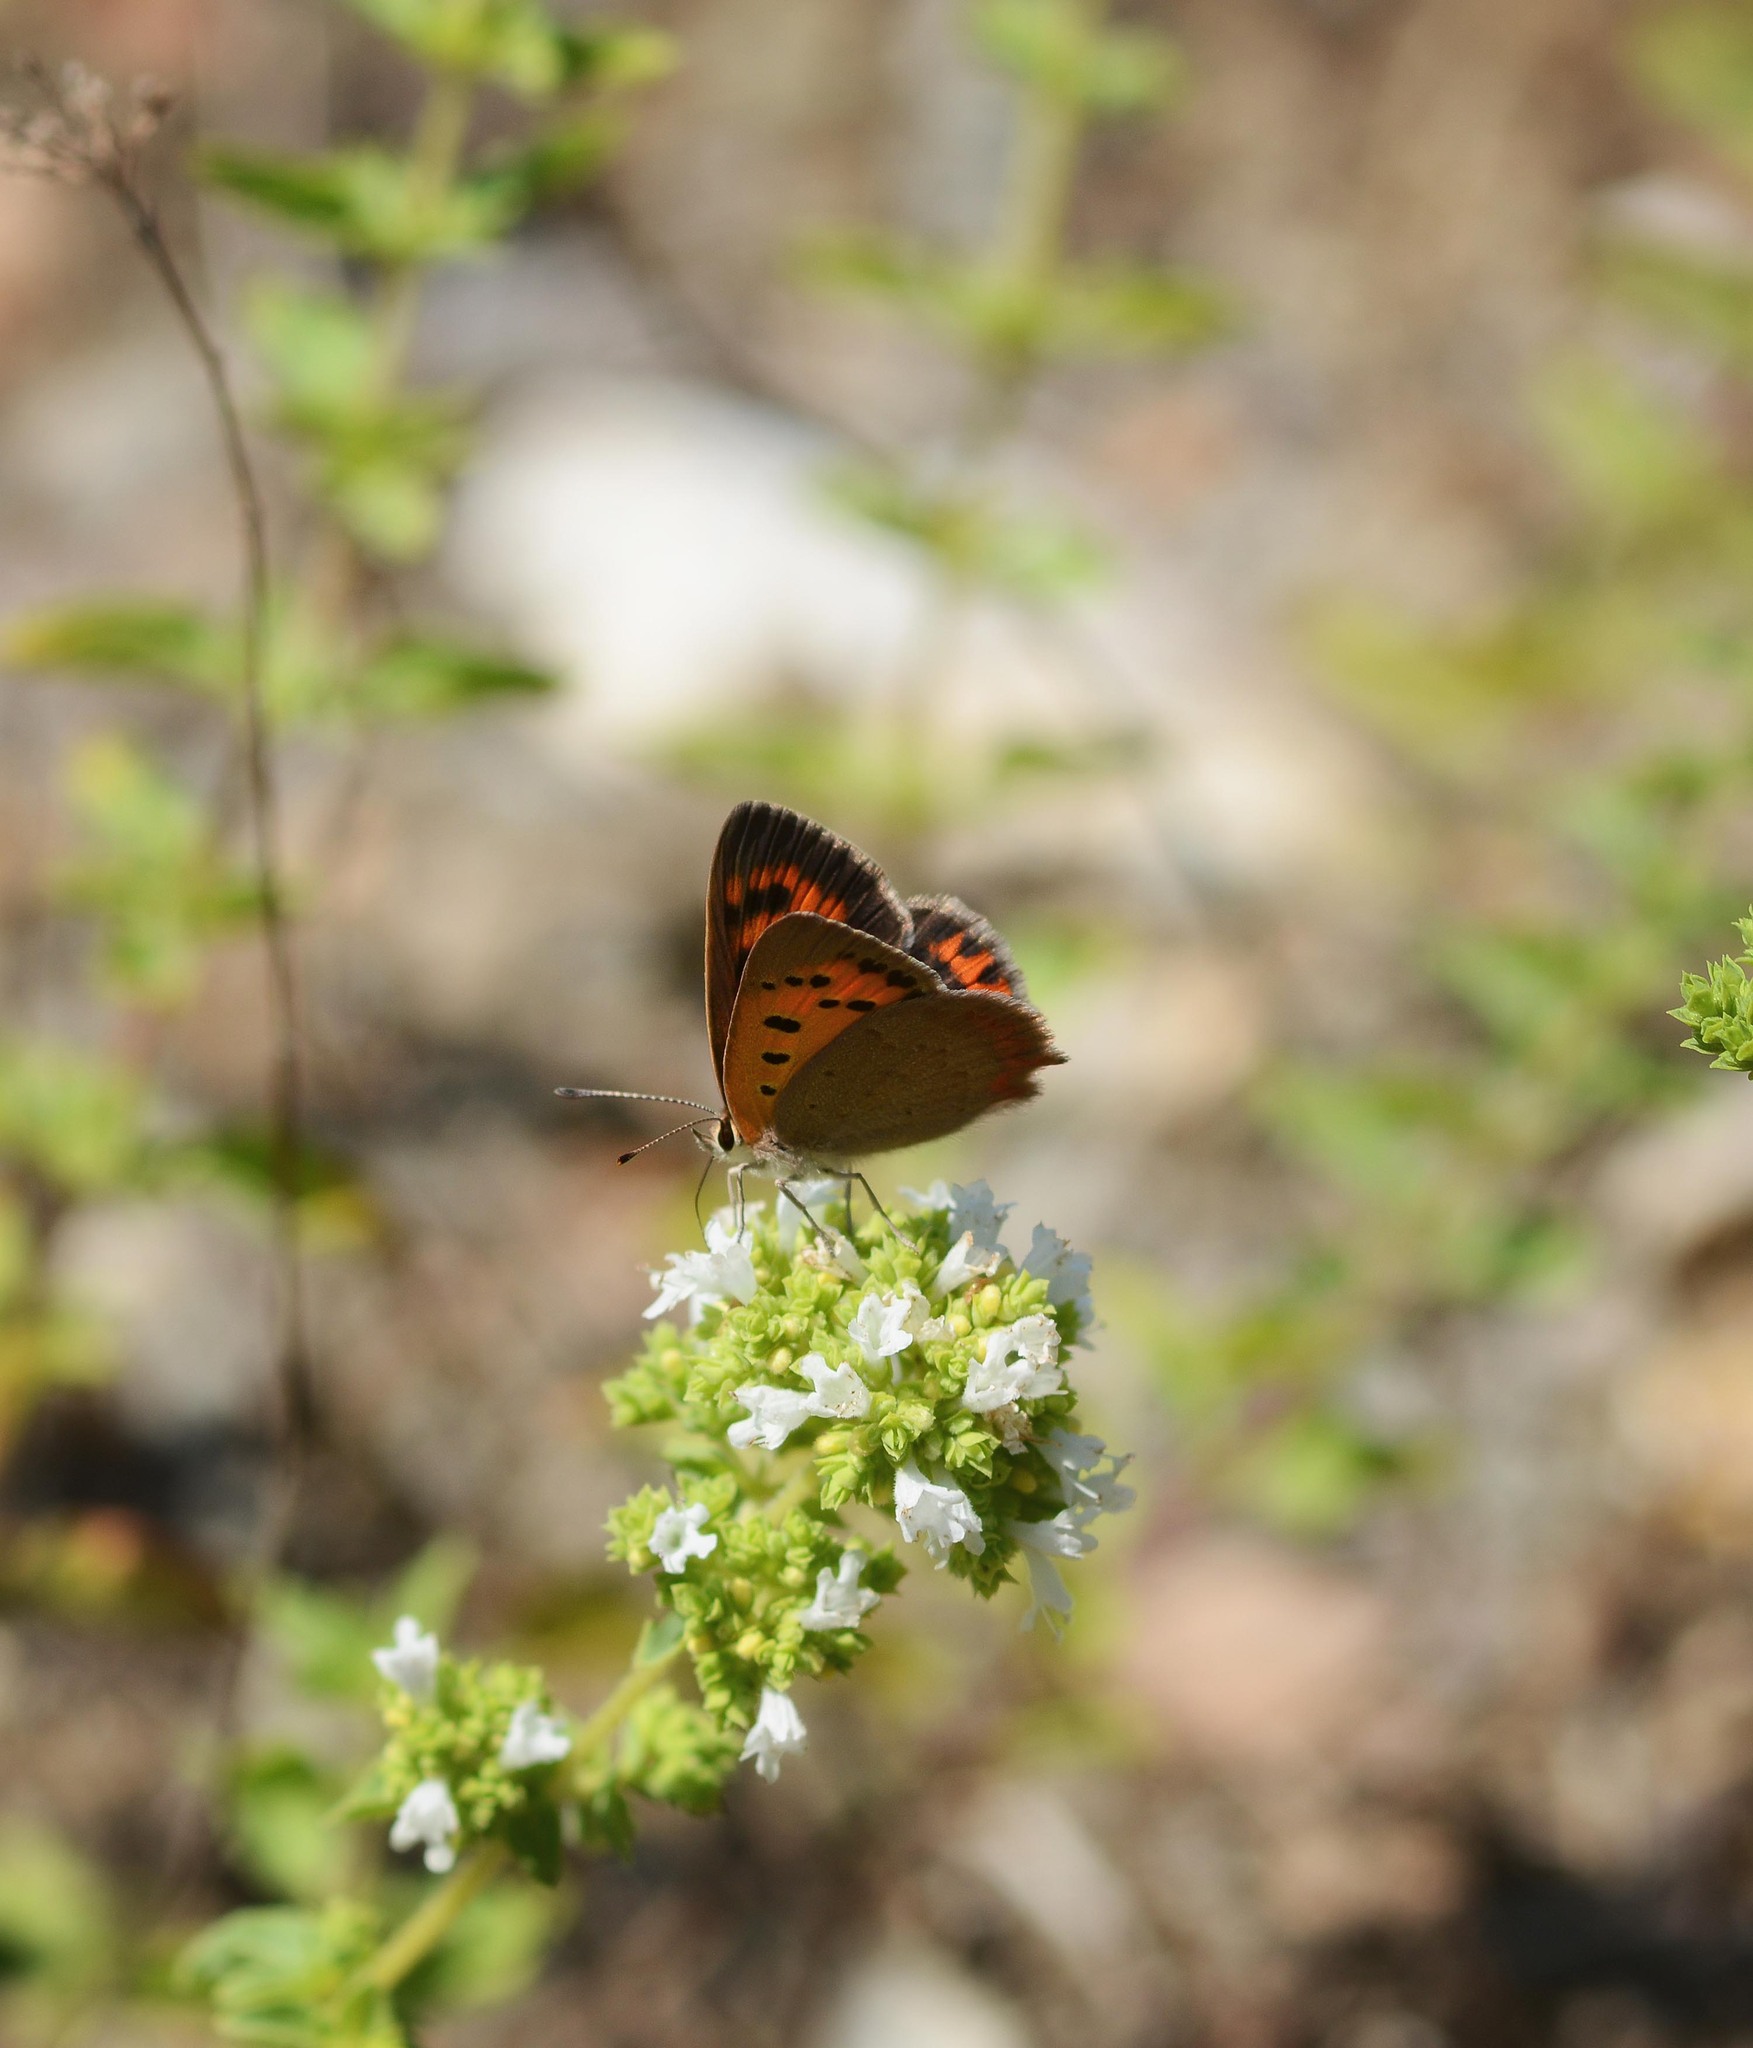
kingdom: Animalia
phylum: Arthropoda
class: Insecta
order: Lepidoptera
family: Lycaenidae
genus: Lycaena
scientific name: Lycaena phlaeas
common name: Small copper
